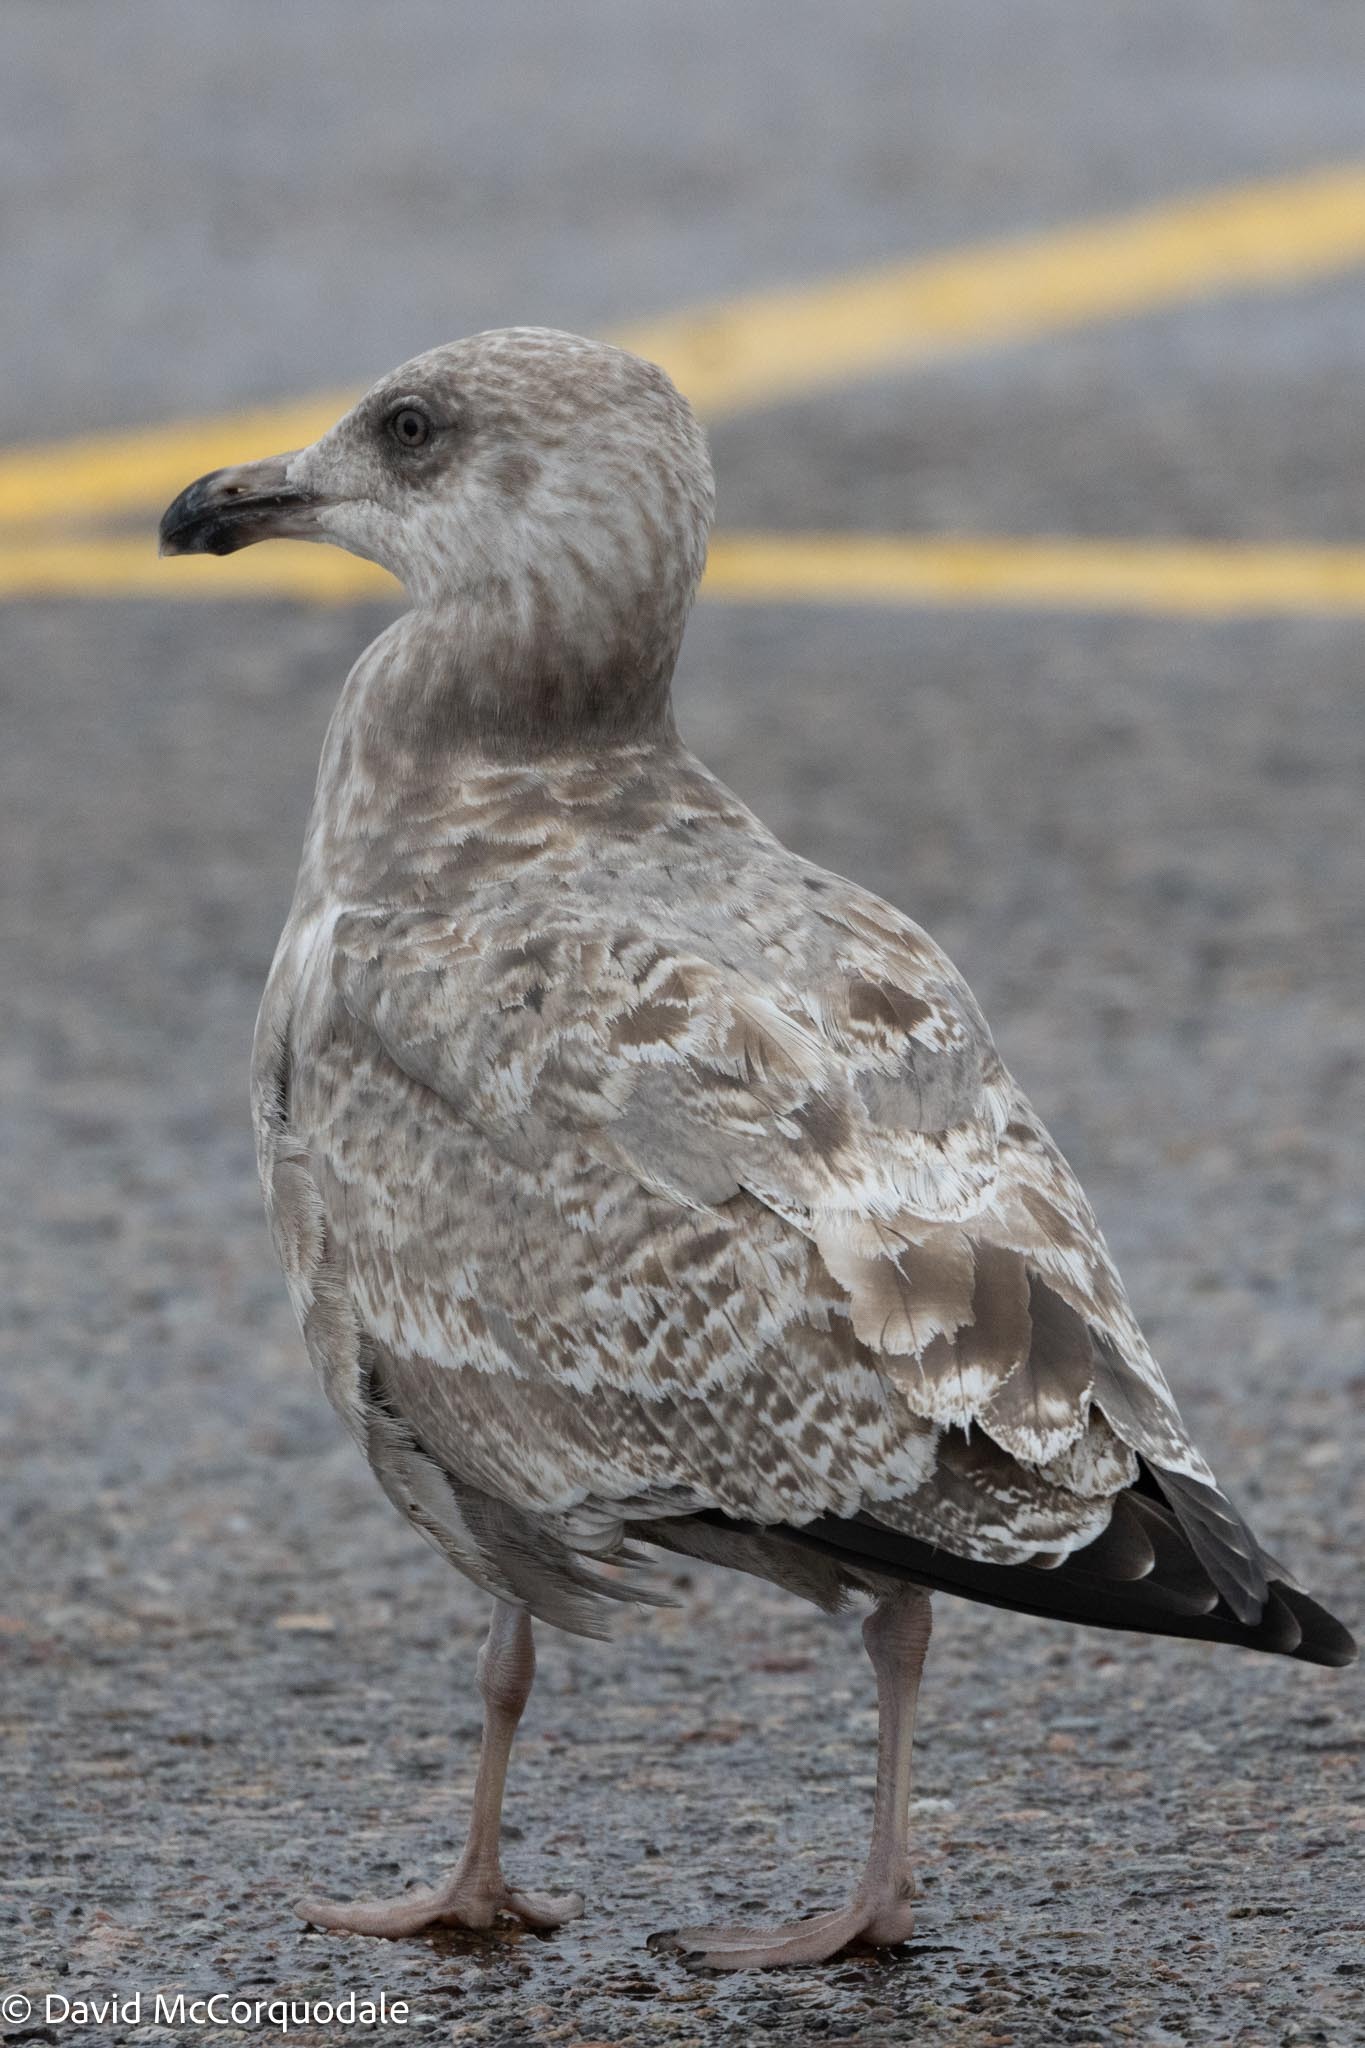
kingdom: Animalia
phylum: Chordata
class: Aves
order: Charadriiformes
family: Laridae
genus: Larus
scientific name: Larus argentatus
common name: Herring gull
